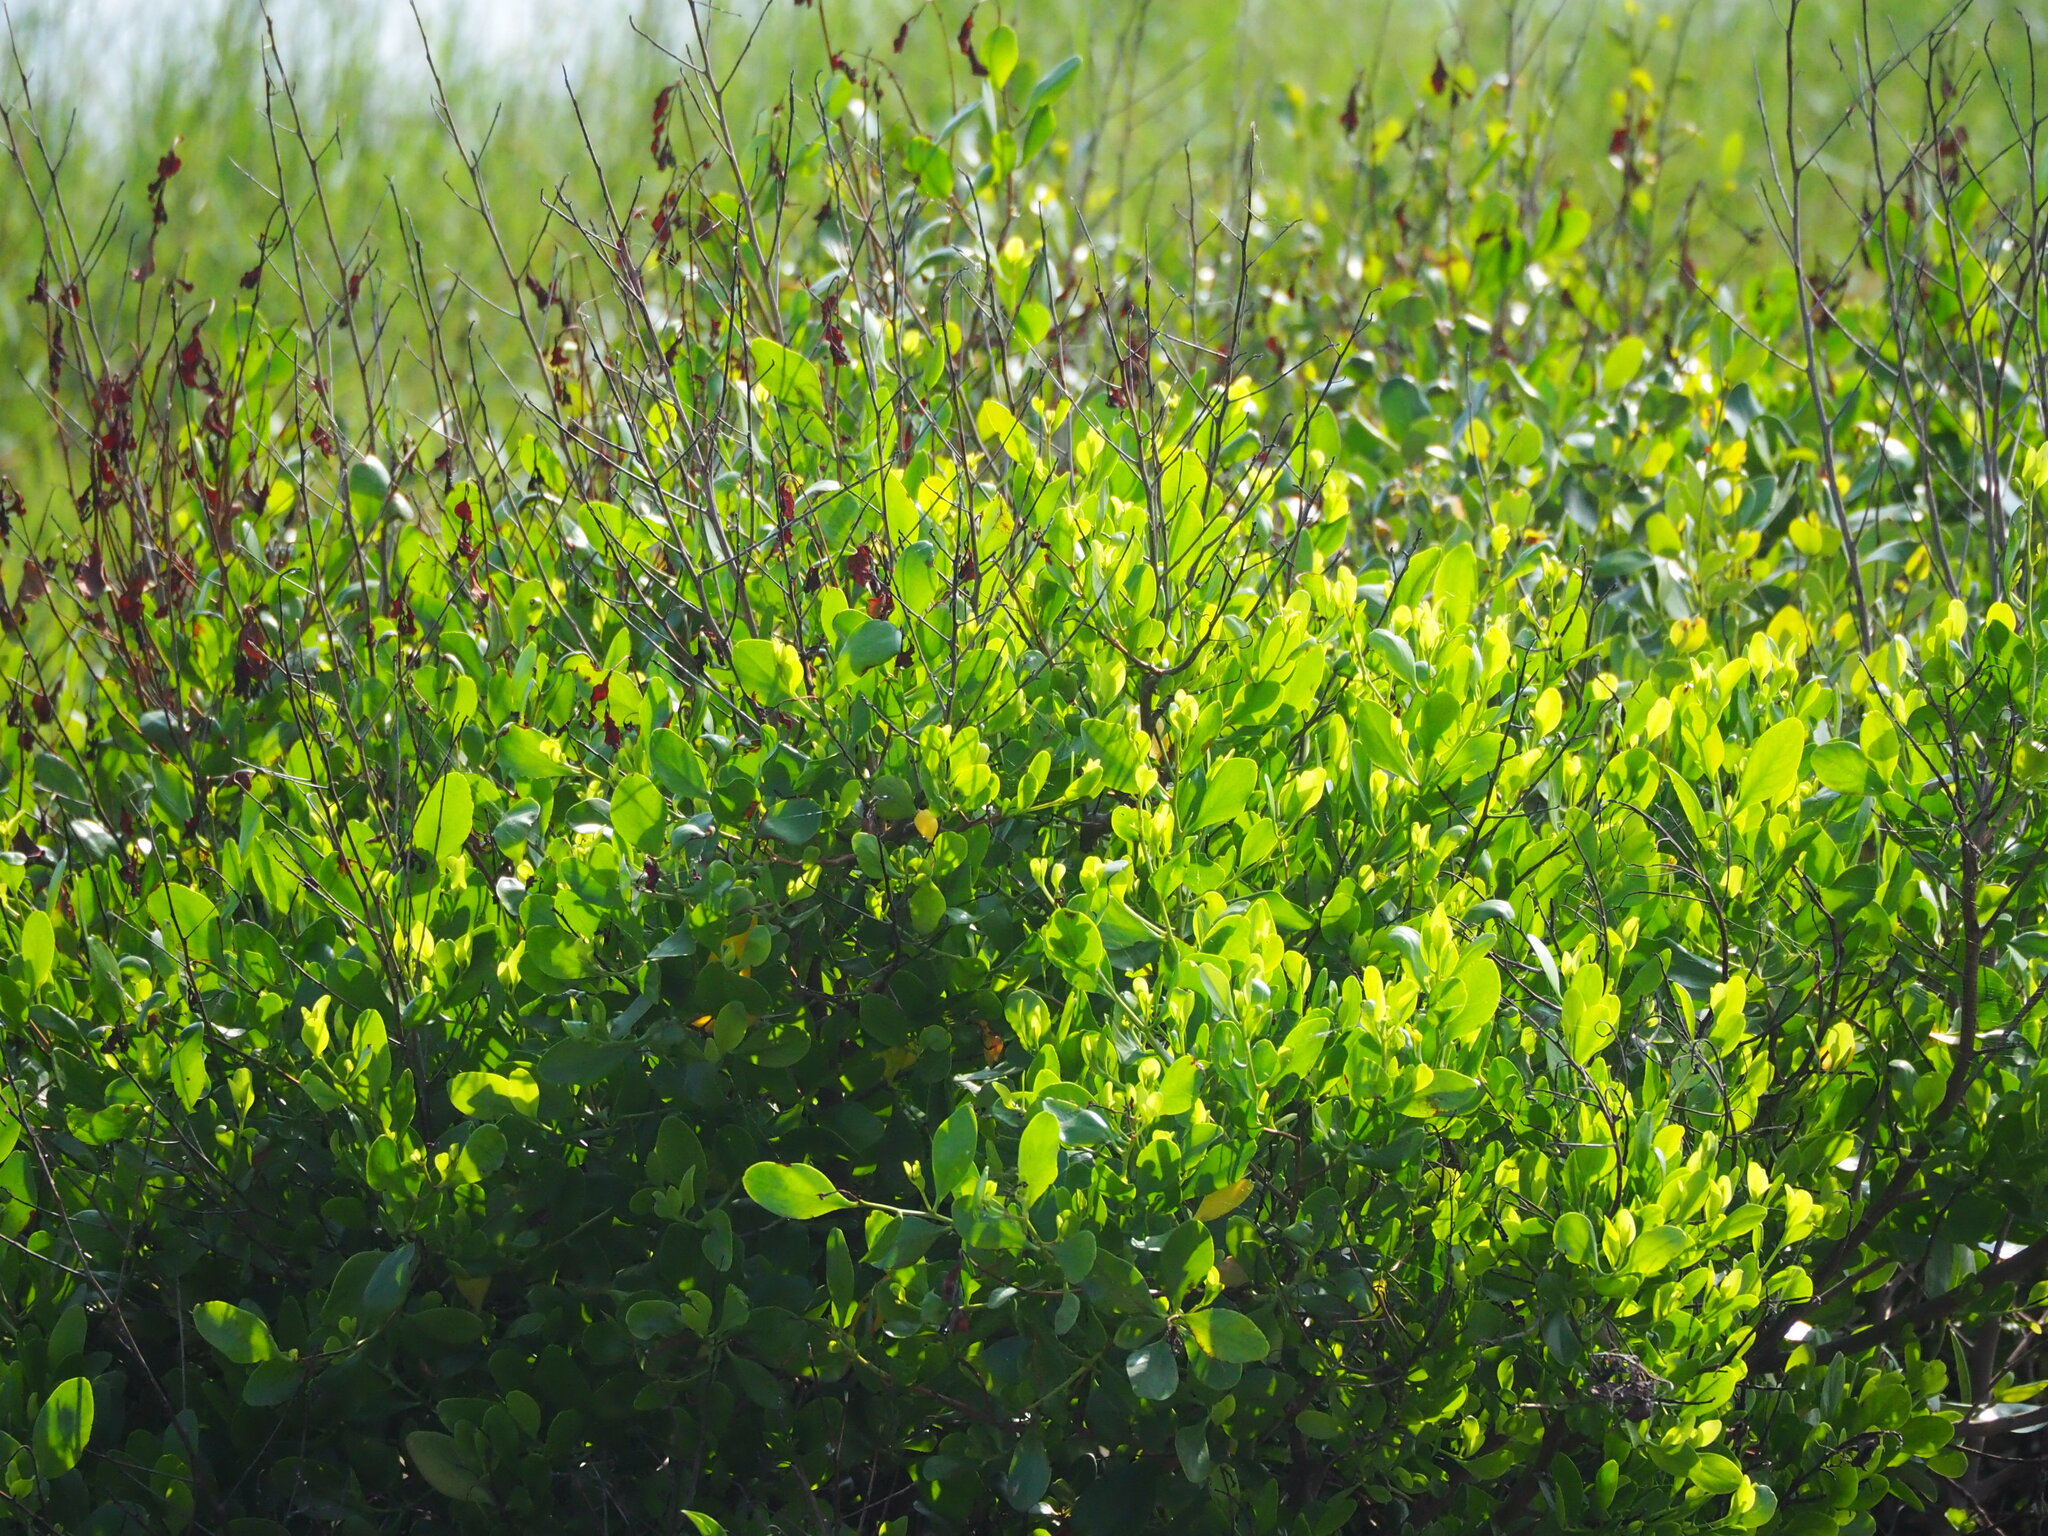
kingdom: Plantae
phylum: Tracheophyta
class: Magnoliopsida
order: Myrtales
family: Combretaceae
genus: Lumnitzera
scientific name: Lumnitzera racemosa
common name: White-flowered black mangrove
